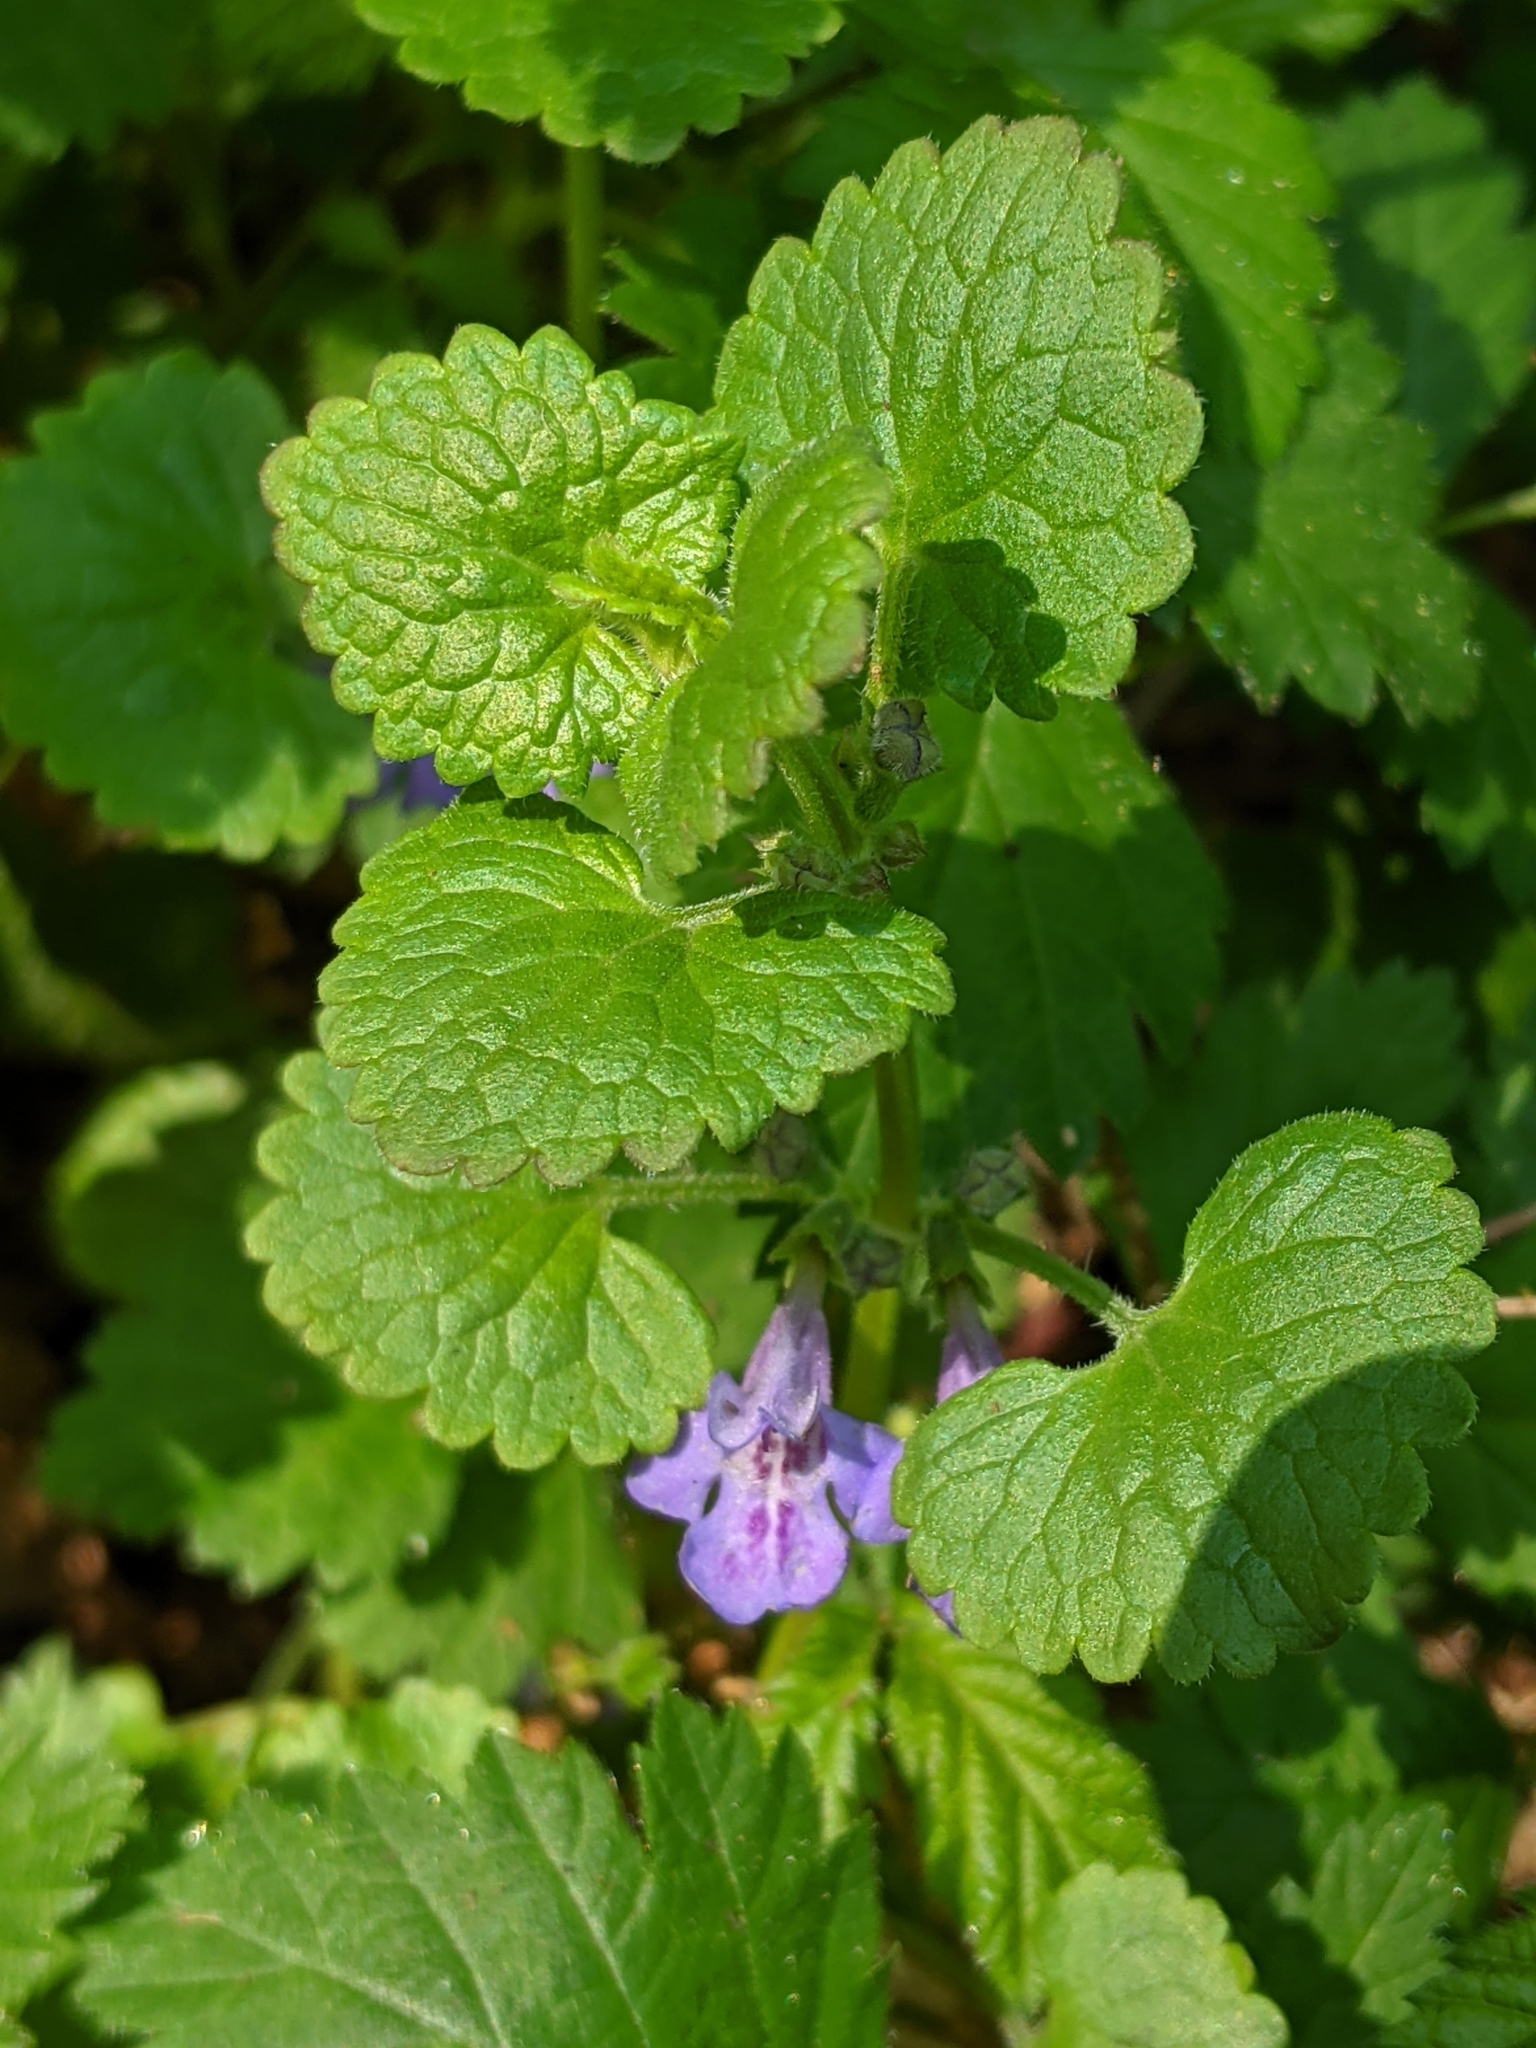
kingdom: Plantae
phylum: Tracheophyta
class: Magnoliopsida
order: Lamiales
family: Lamiaceae
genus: Glechoma
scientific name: Glechoma hederacea
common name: Ground ivy
